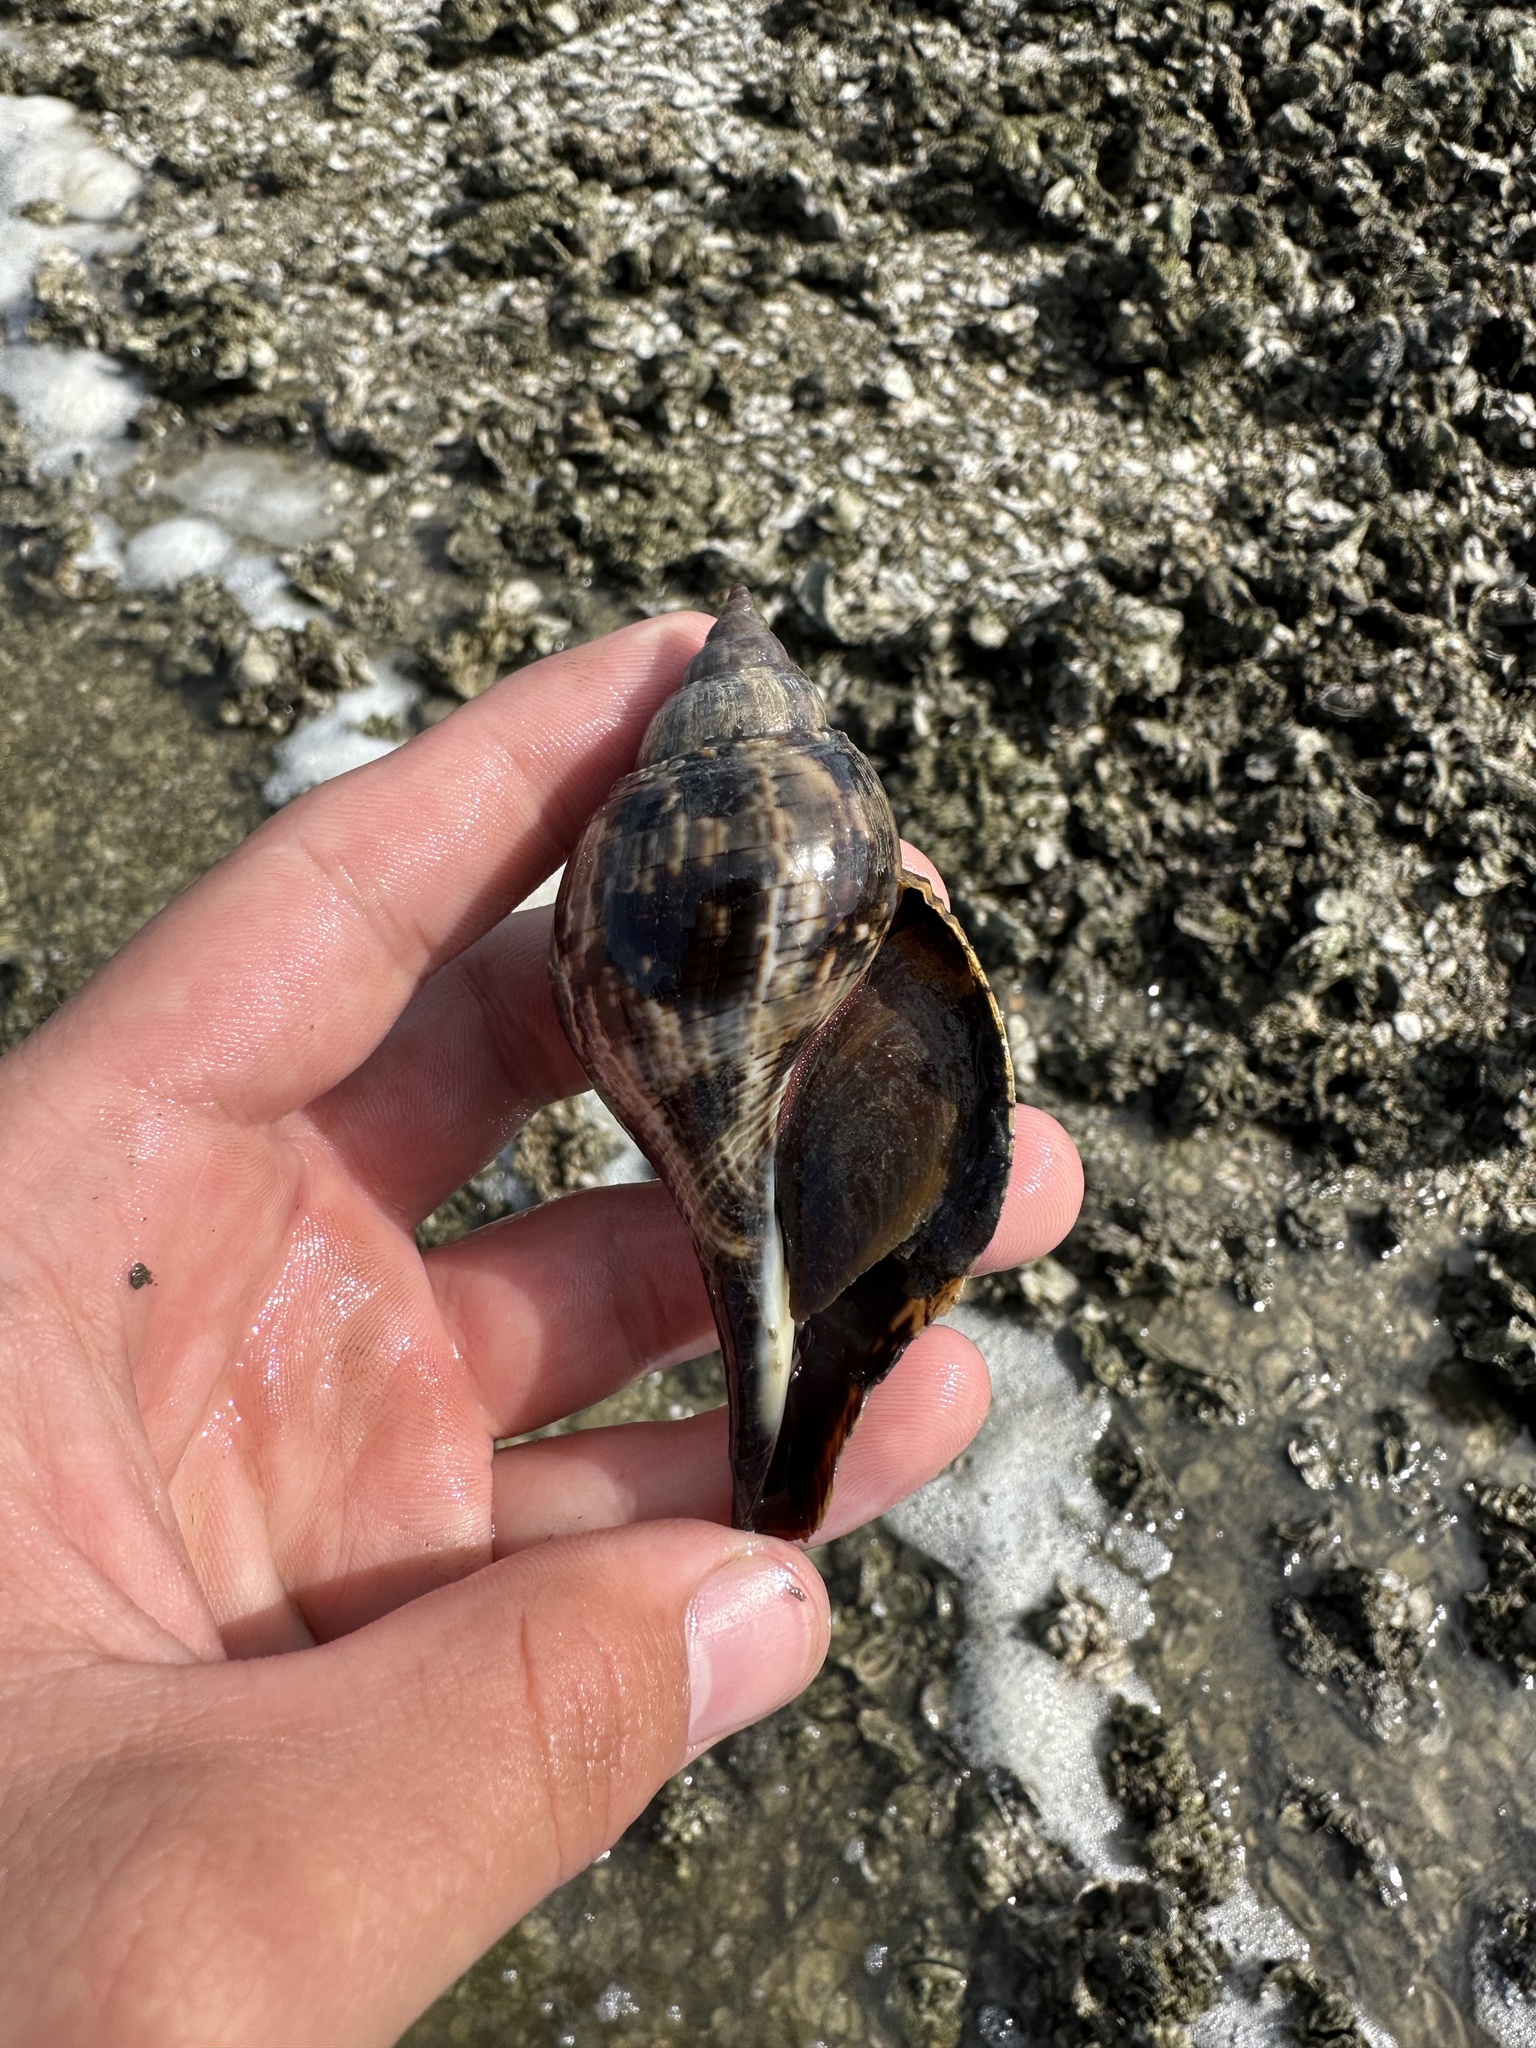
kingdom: Animalia
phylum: Mollusca
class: Gastropoda
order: Neogastropoda
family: Fasciolariidae
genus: Fasciolaria
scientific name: Fasciolaria tulipa
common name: True tulip
